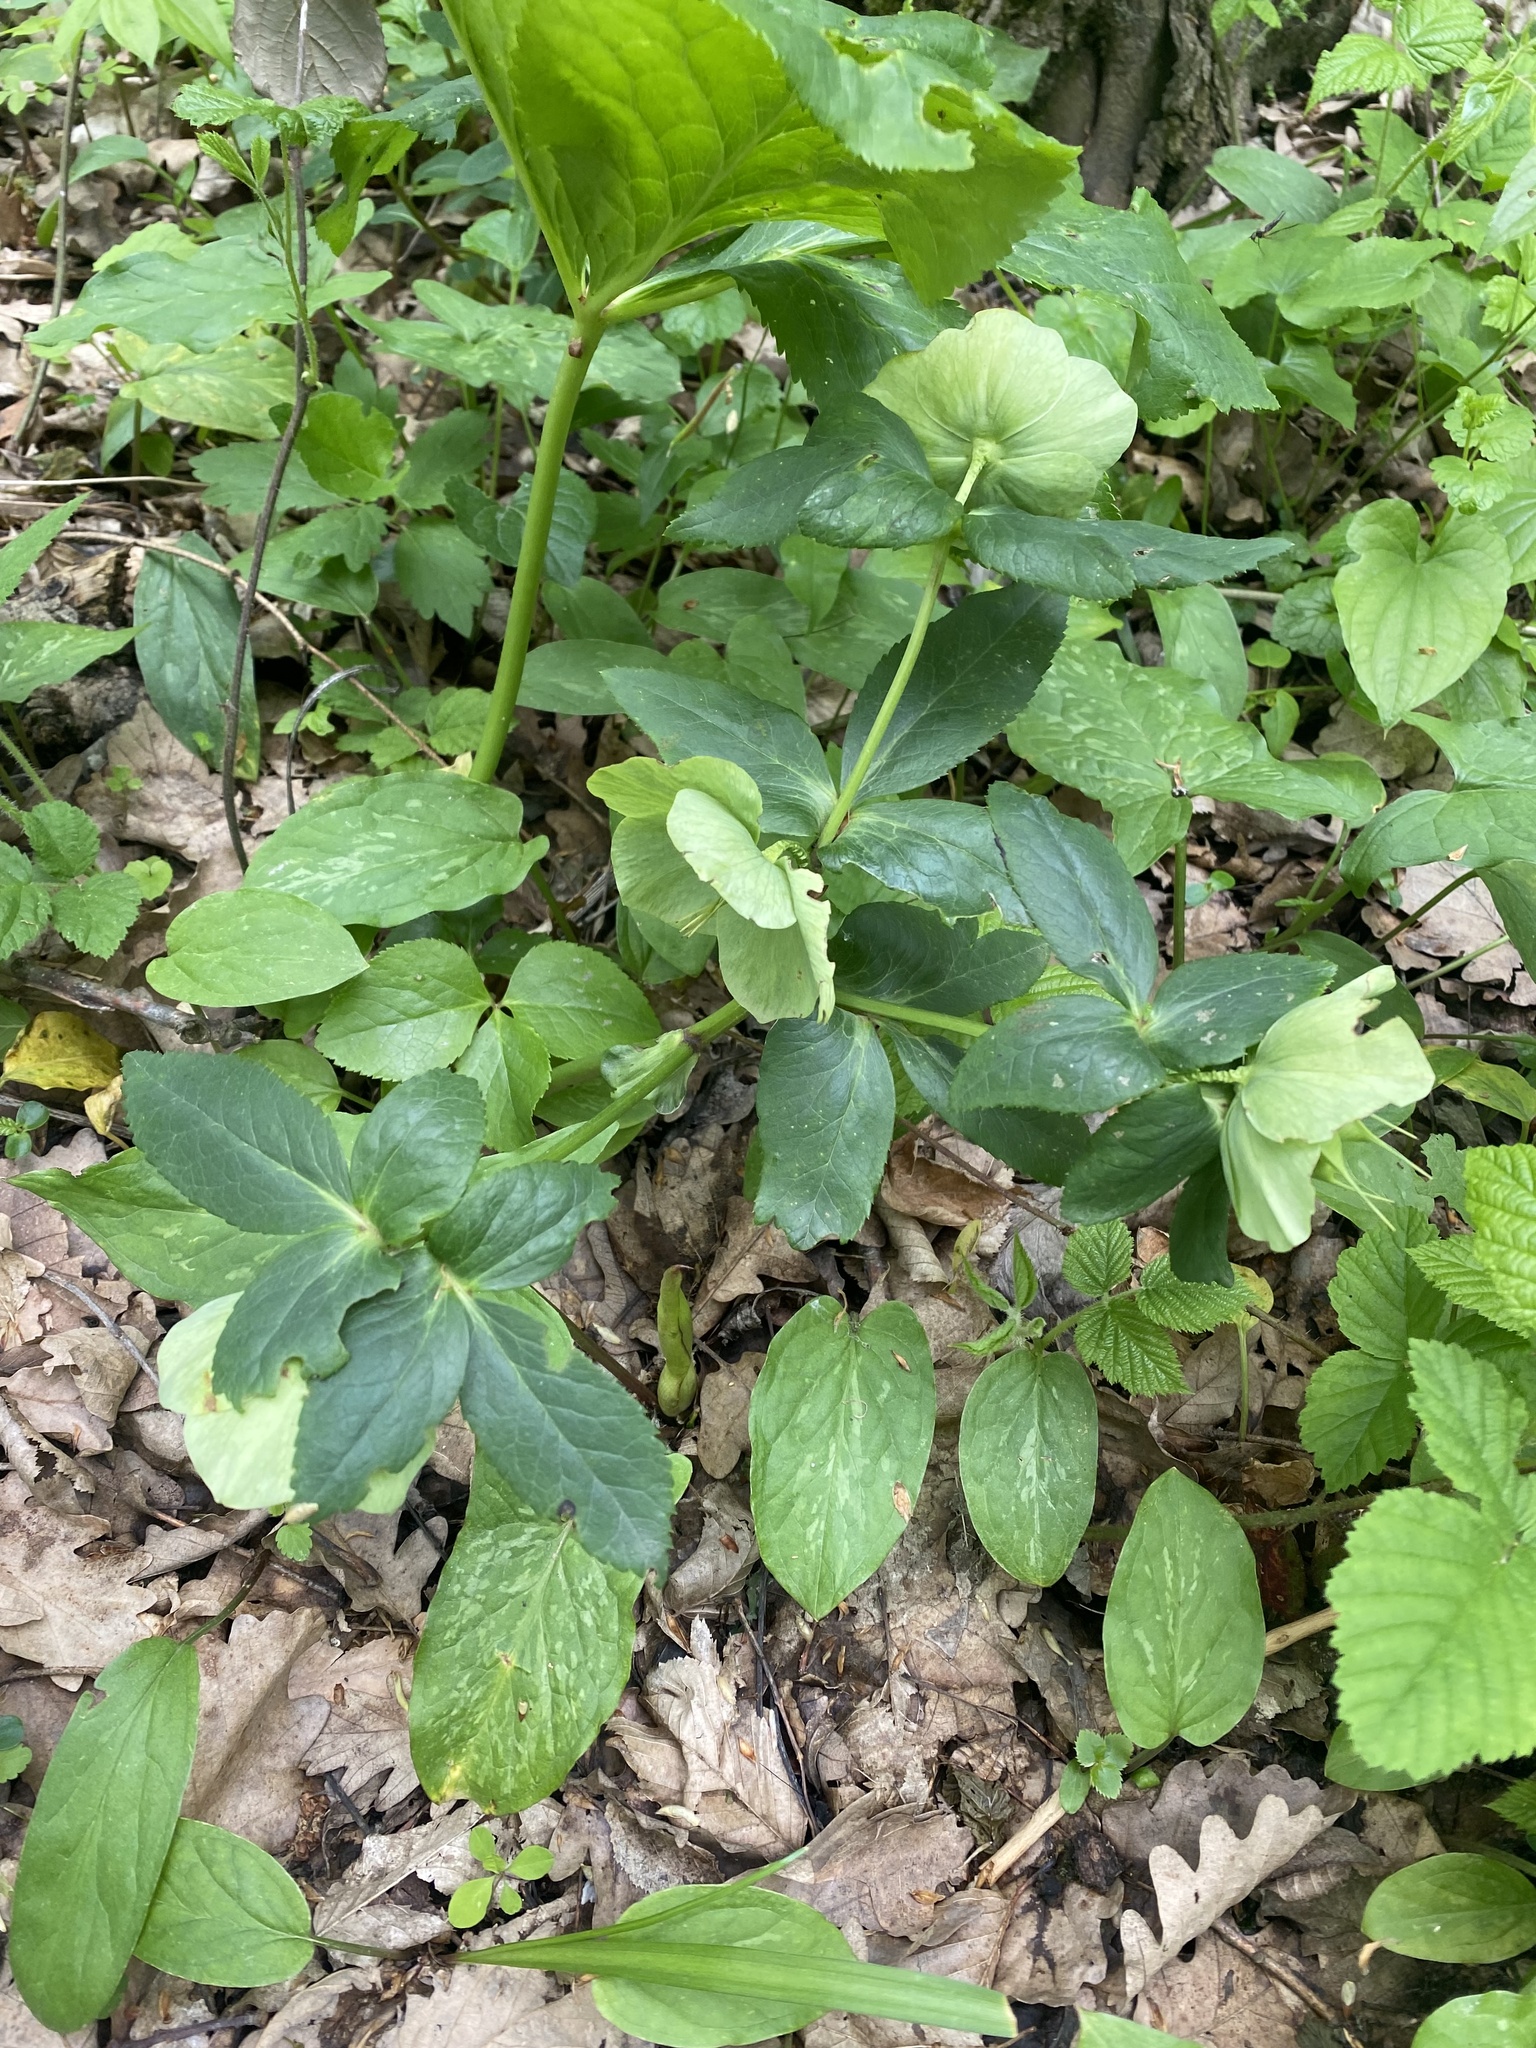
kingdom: Plantae
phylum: Tracheophyta
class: Magnoliopsida
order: Ranunculales
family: Ranunculaceae
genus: Helleborus
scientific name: Helleborus orientalis
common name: Lenten-rose
